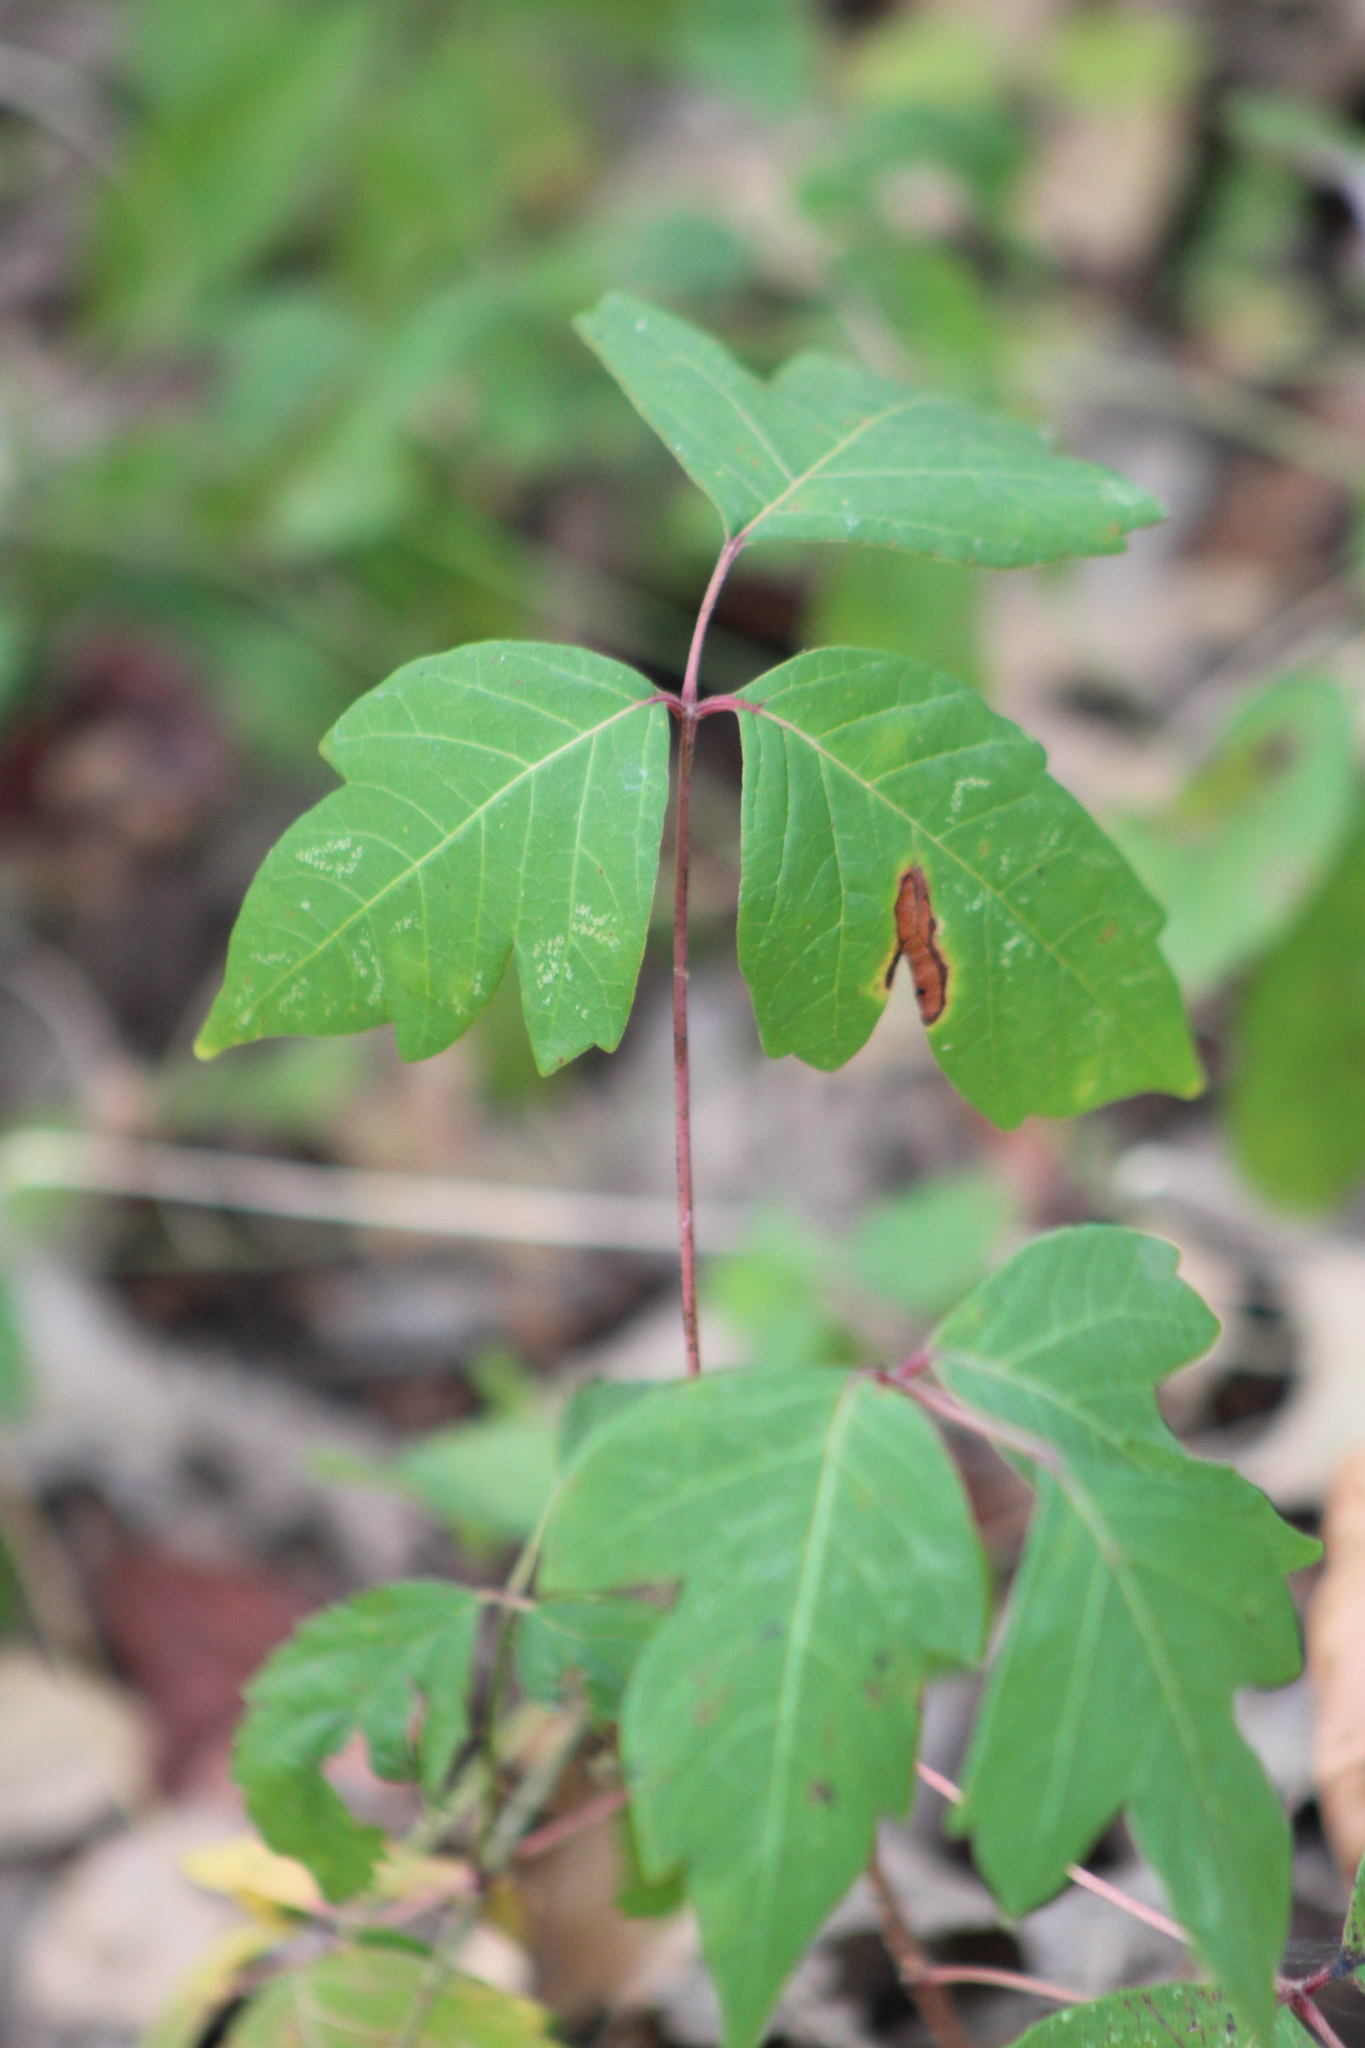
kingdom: Plantae
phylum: Tracheophyta
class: Magnoliopsida
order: Sapindales
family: Anacardiaceae
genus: Toxicodendron
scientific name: Toxicodendron radicans
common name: Poison ivy
